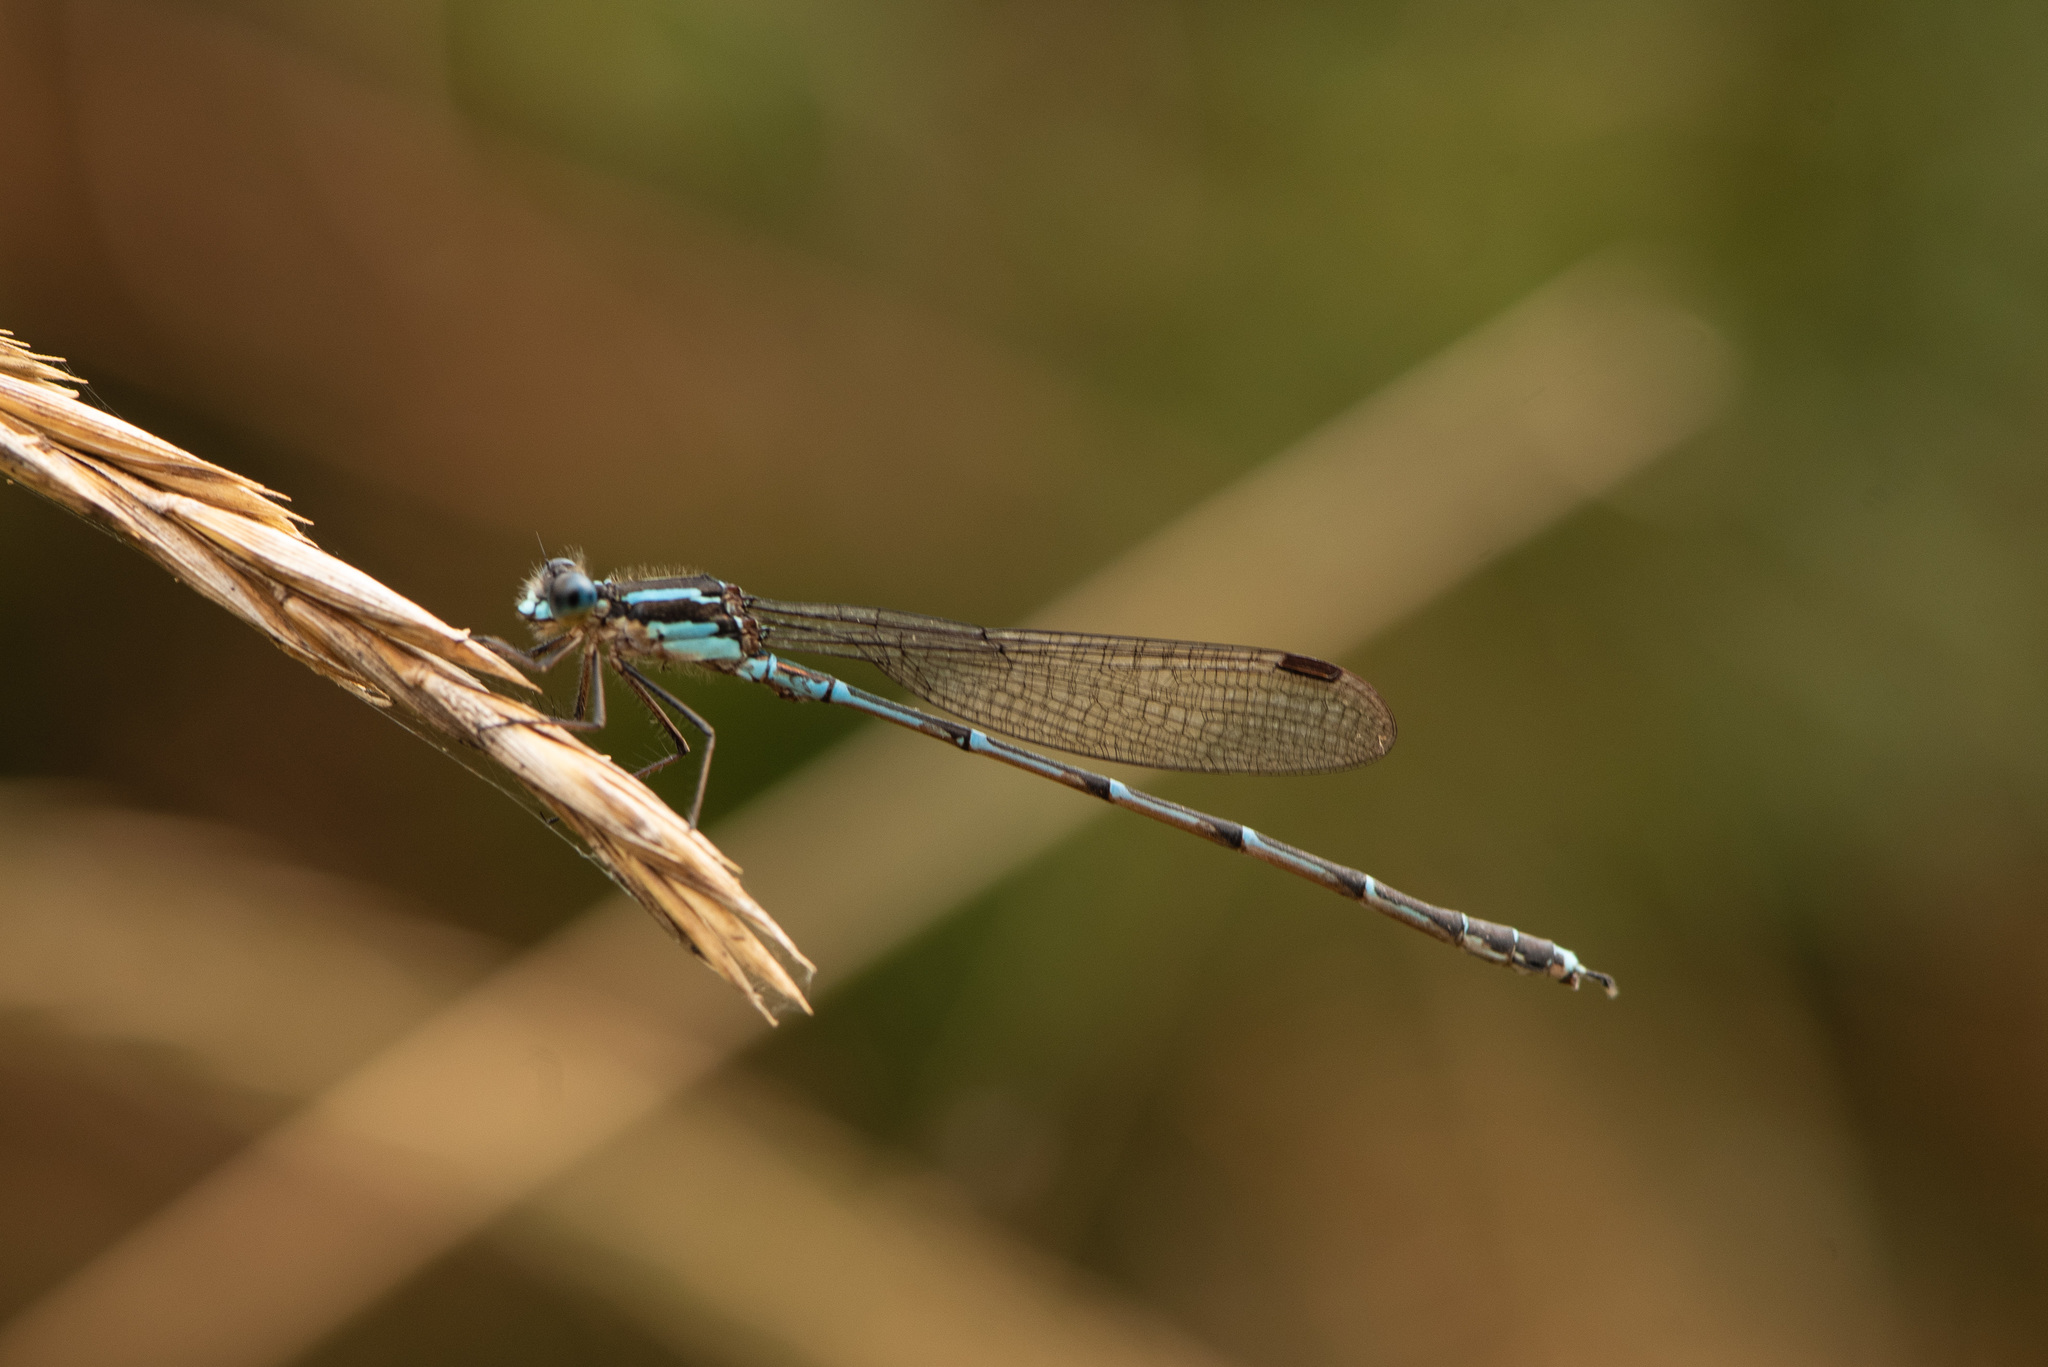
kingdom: Animalia
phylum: Arthropoda
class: Insecta
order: Odonata
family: Lestidae
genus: Austrolestes
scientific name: Austrolestes colensonis
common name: Blue damselfly
